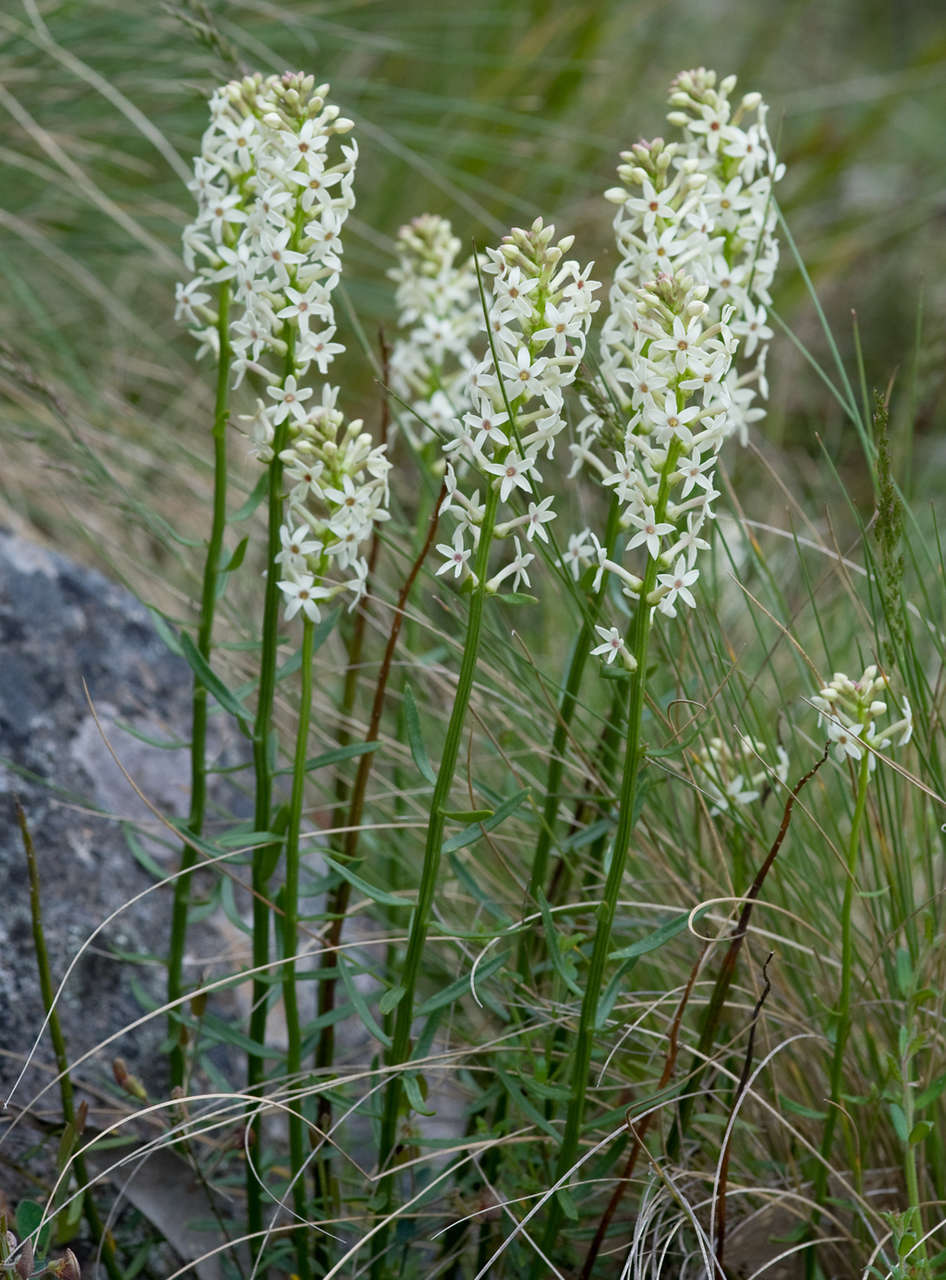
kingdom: Plantae
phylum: Tracheophyta
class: Magnoliopsida
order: Celastrales
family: Celastraceae
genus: Stackhousia
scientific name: Stackhousia monogyna
